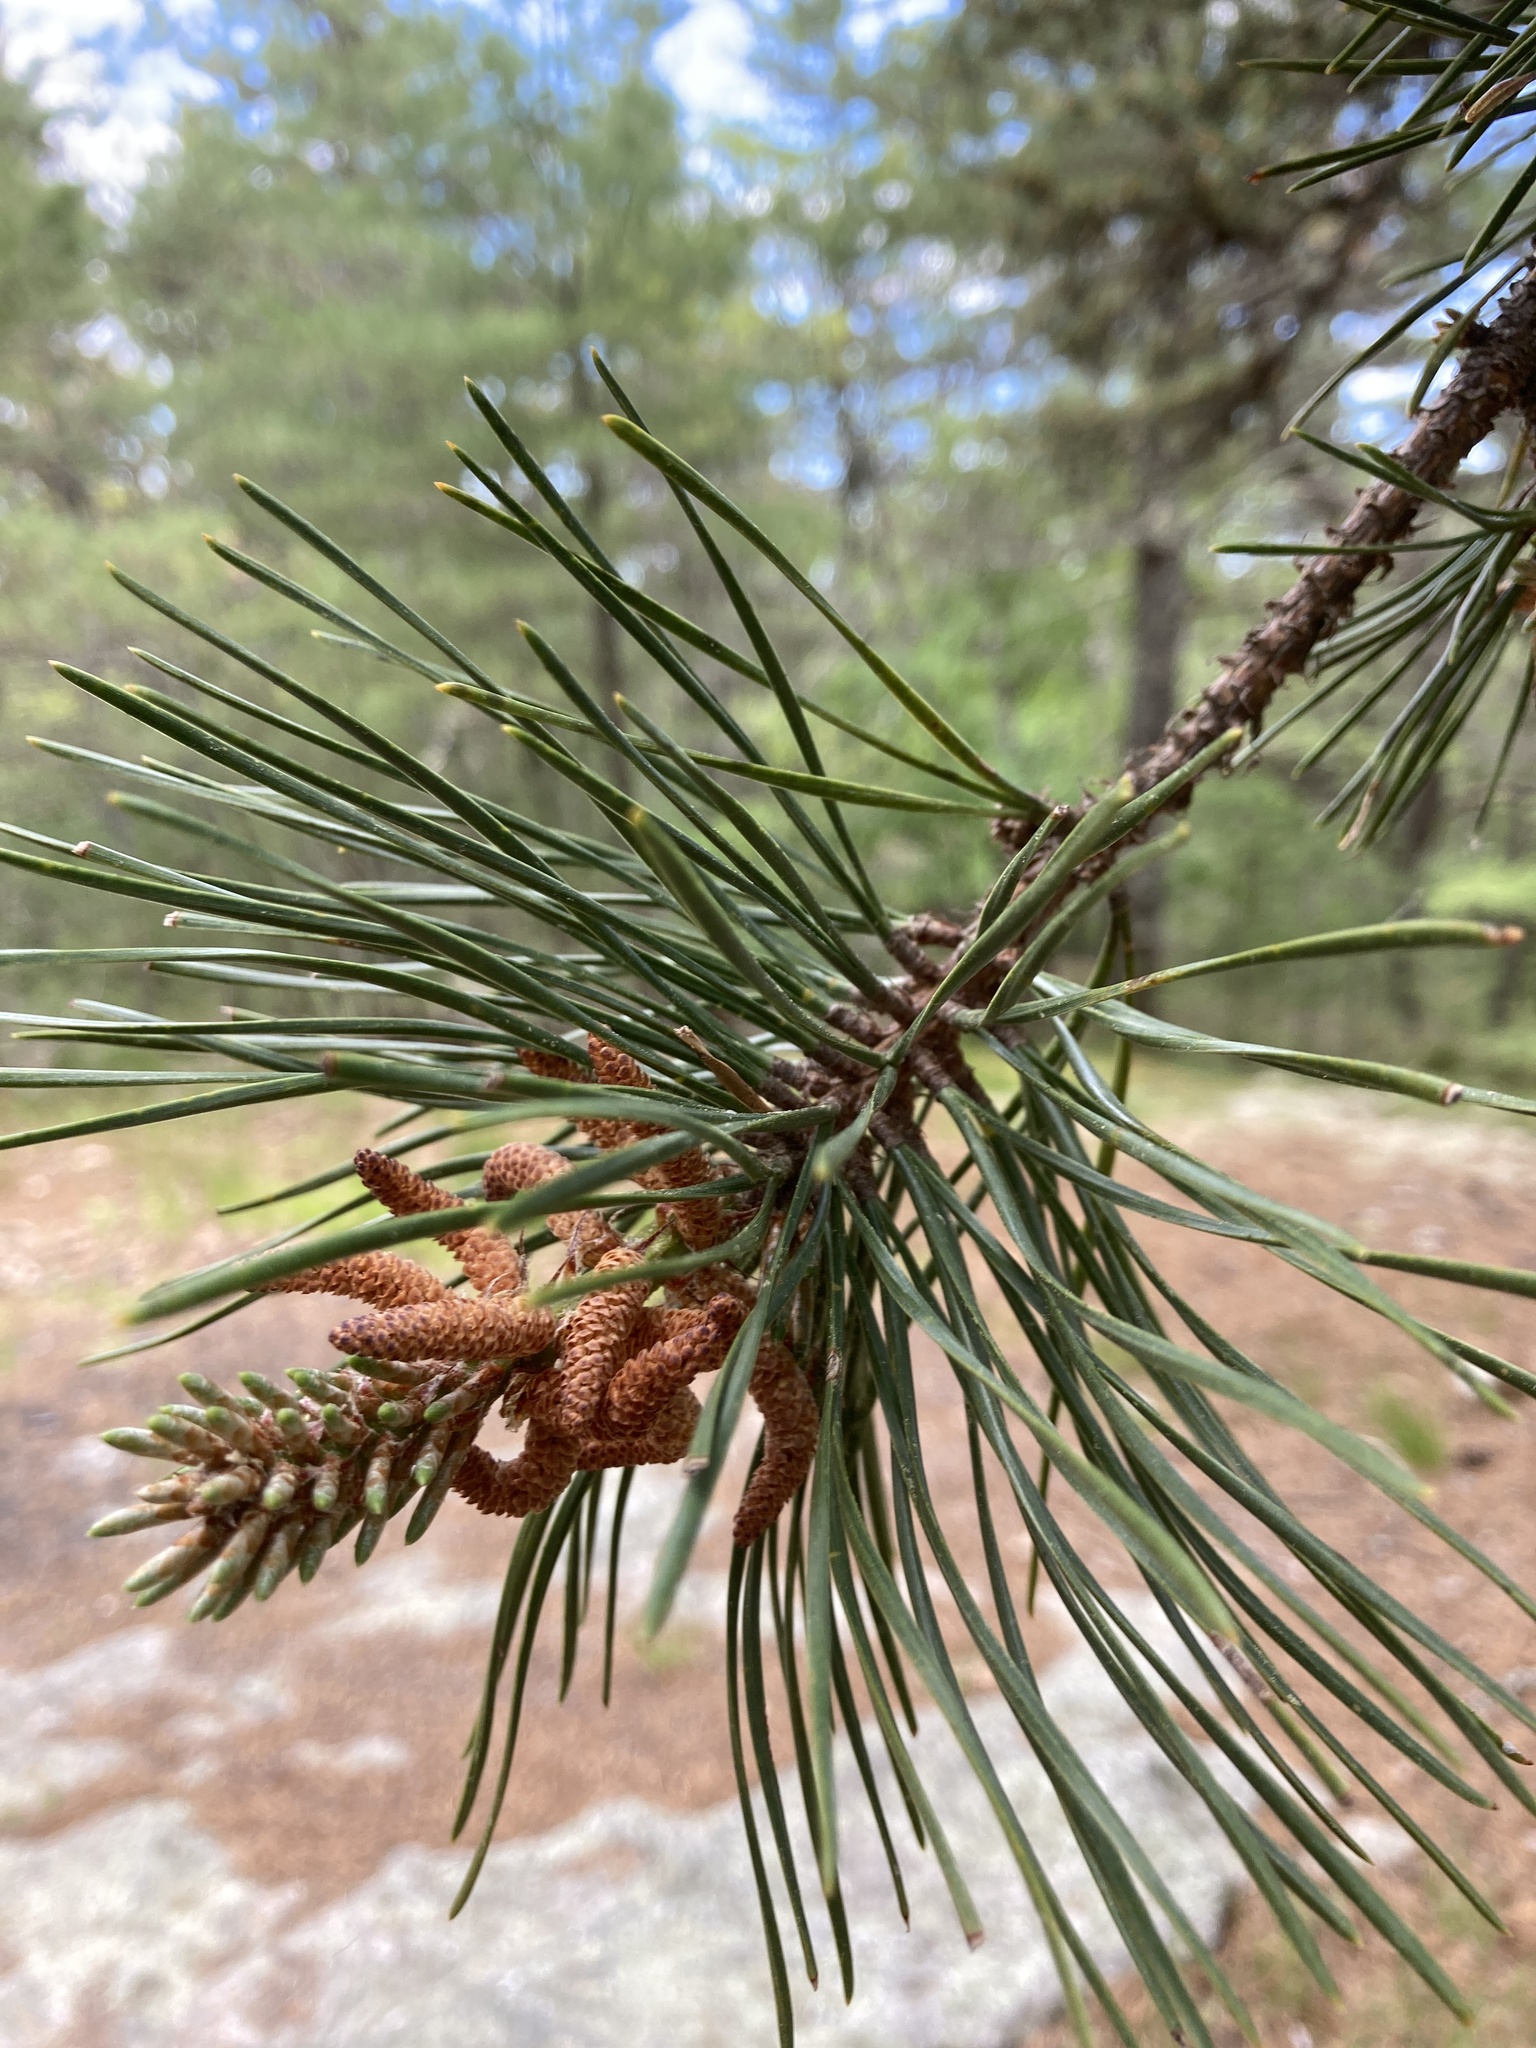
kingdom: Plantae
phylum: Tracheophyta
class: Pinopsida
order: Pinales
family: Pinaceae
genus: Pinus
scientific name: Pinus rigida
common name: Pitch pine
